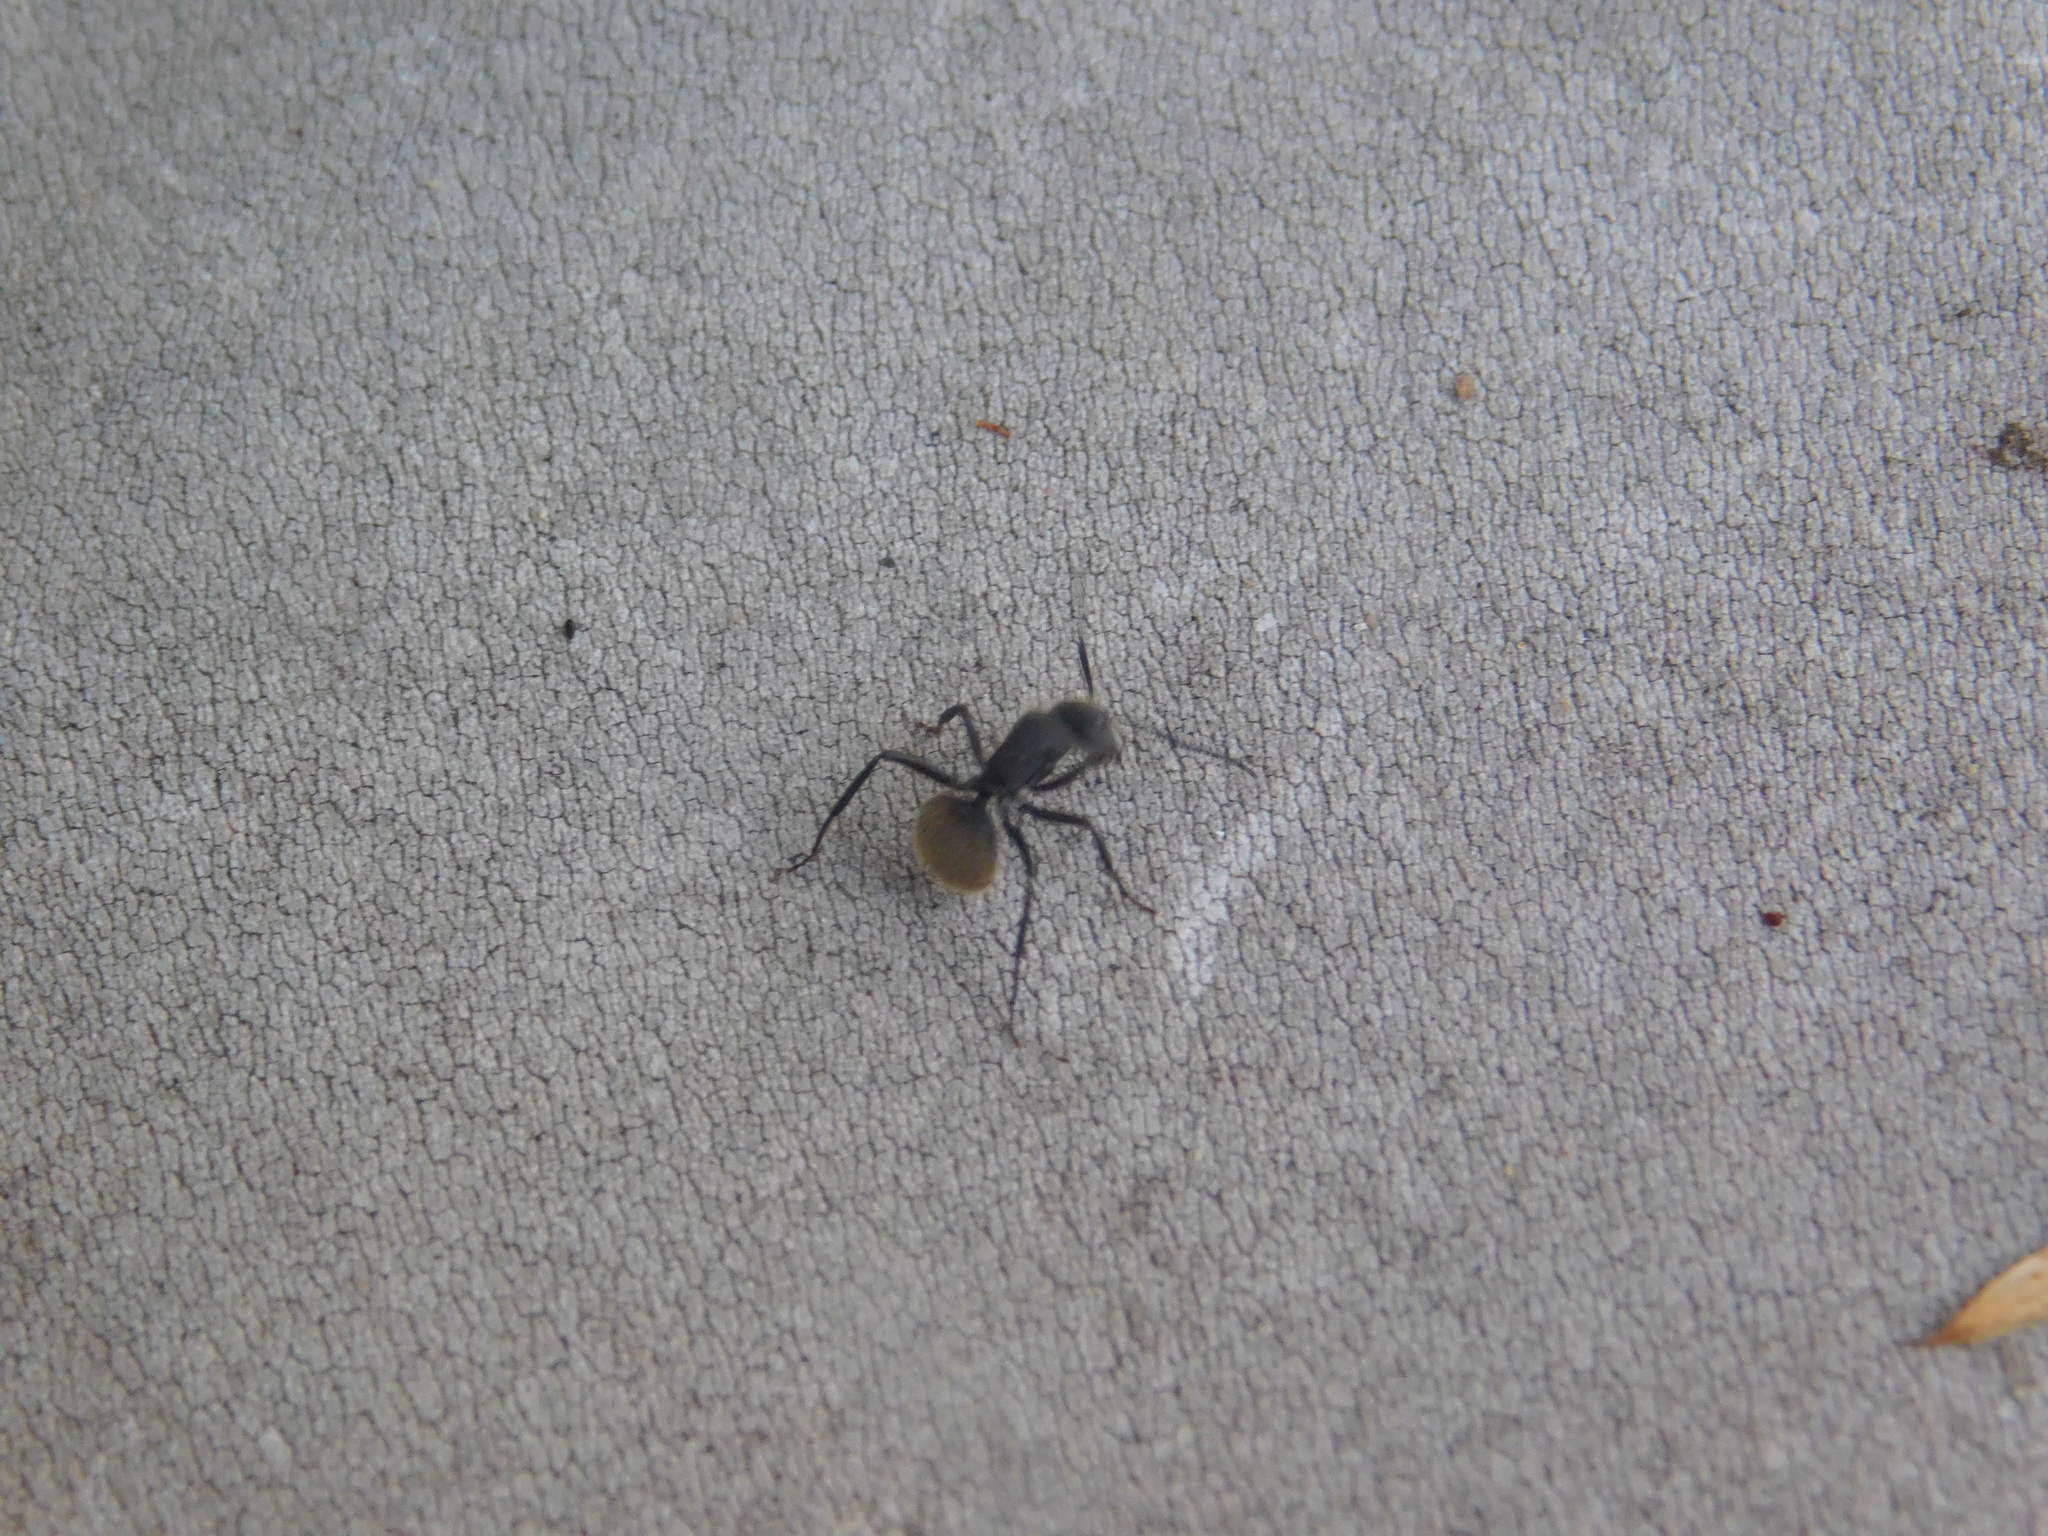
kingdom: Animalia
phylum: Arthropoda
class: Insecta
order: Hymenoptera
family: Formicidae
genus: Camponotus
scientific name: Camponotus mus
